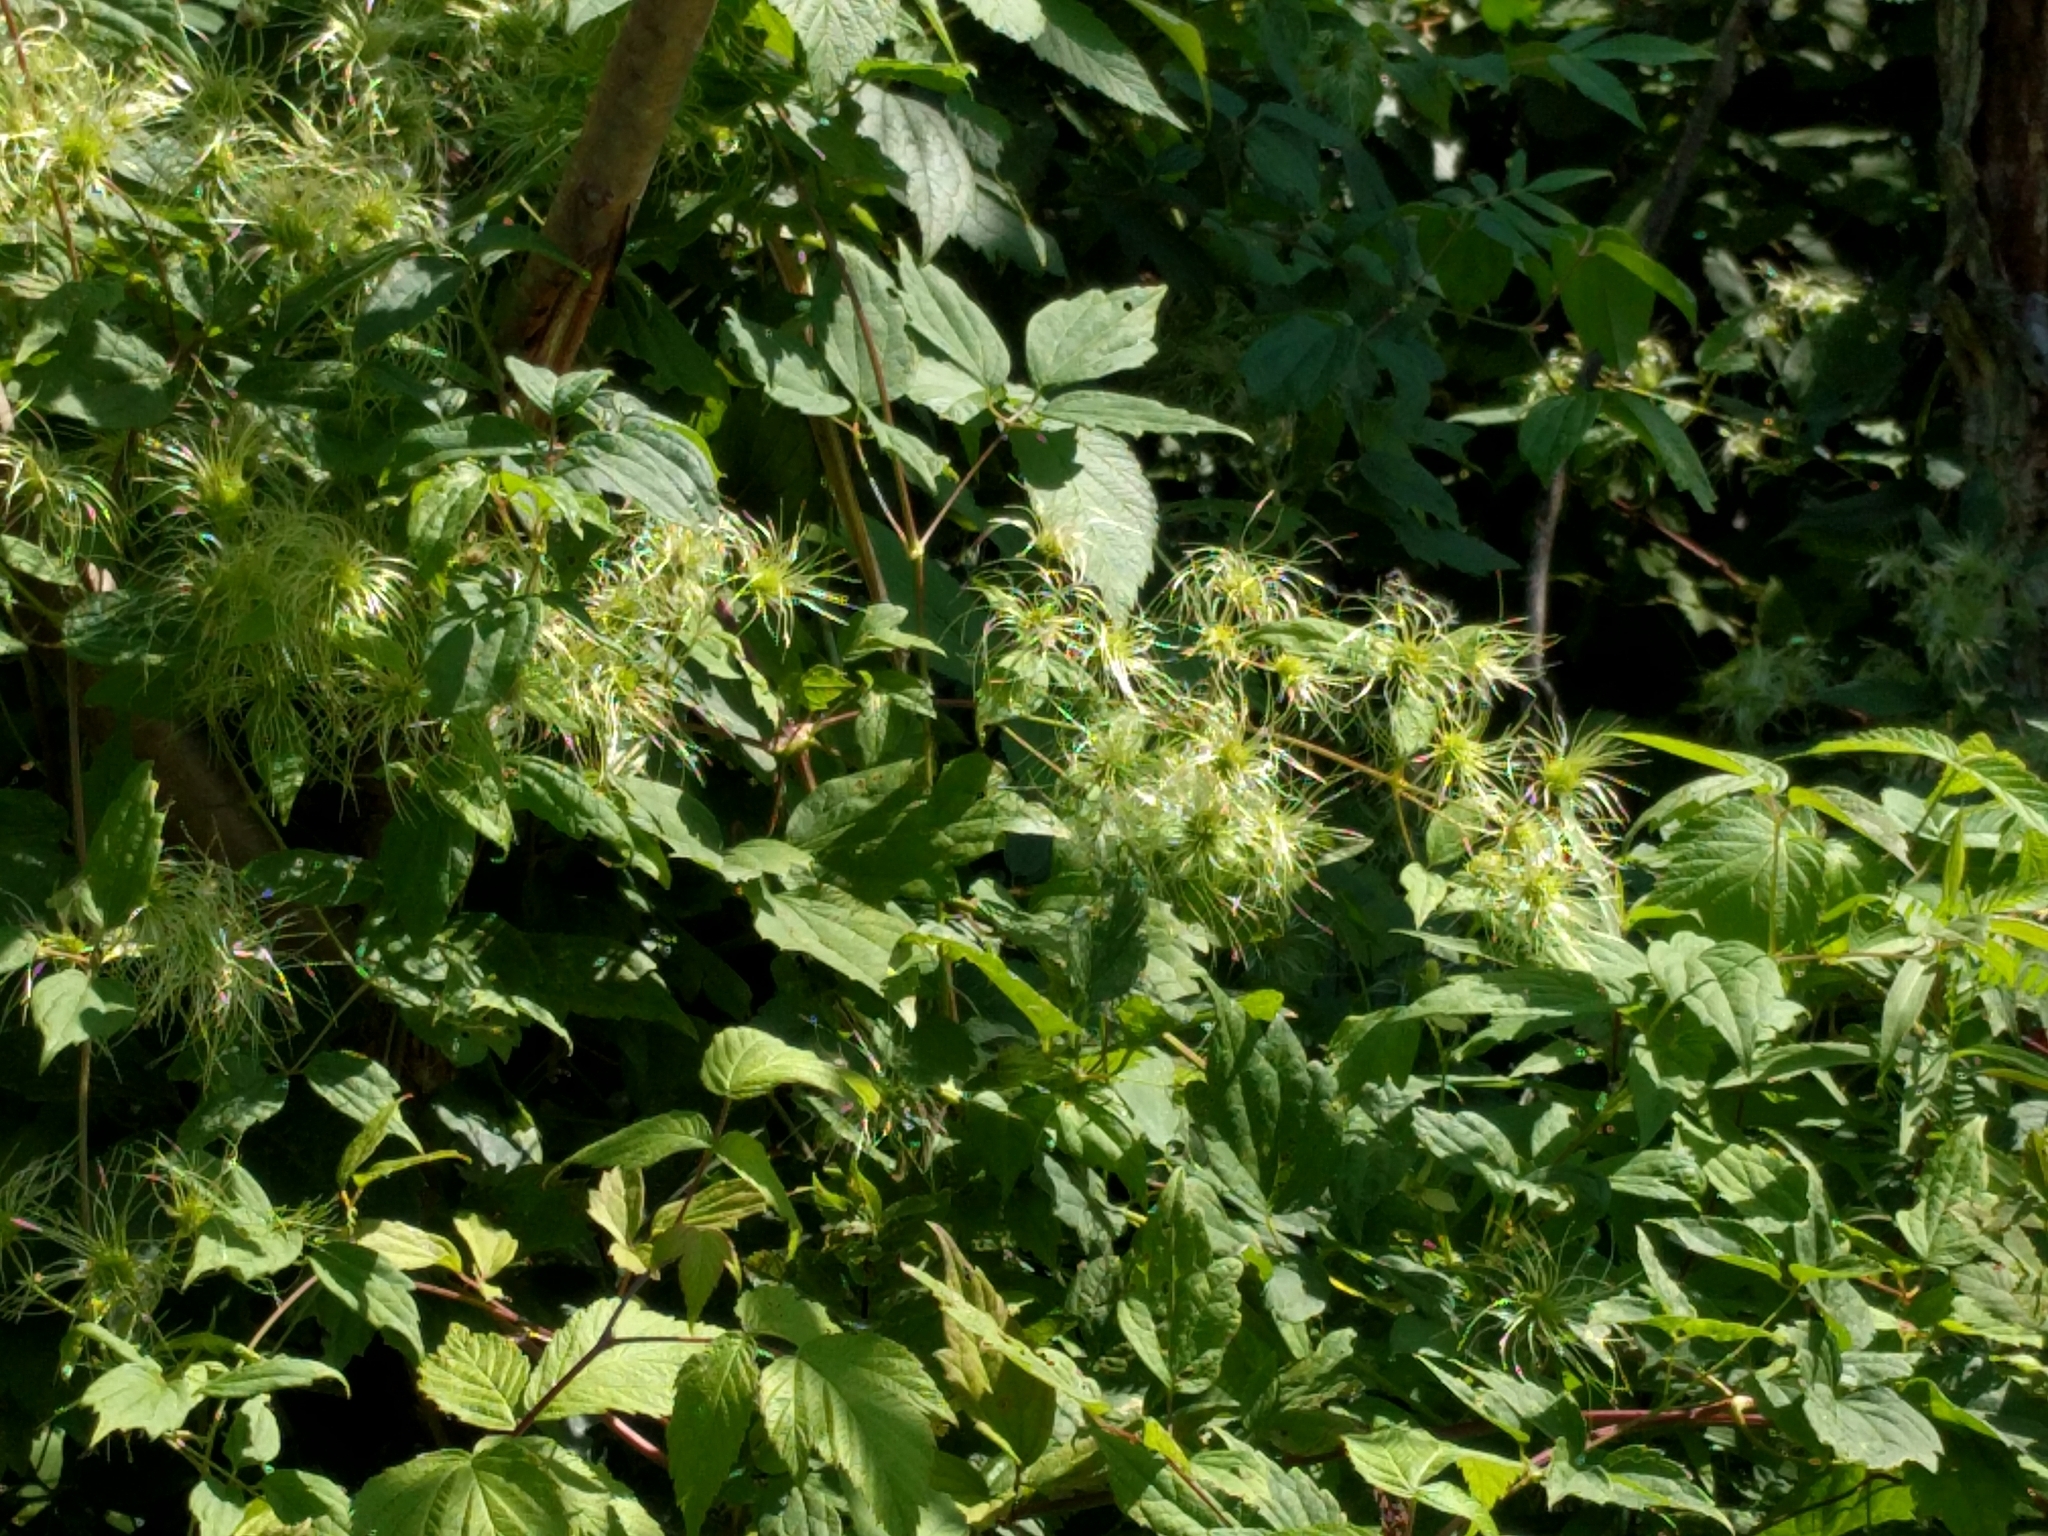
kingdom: Plantae
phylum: Tracheophyta
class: Magnoliopsida
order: Ranunculales
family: Ranunculaceae
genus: Clematis
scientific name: Clematis virginiana
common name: Virgin's-bower
